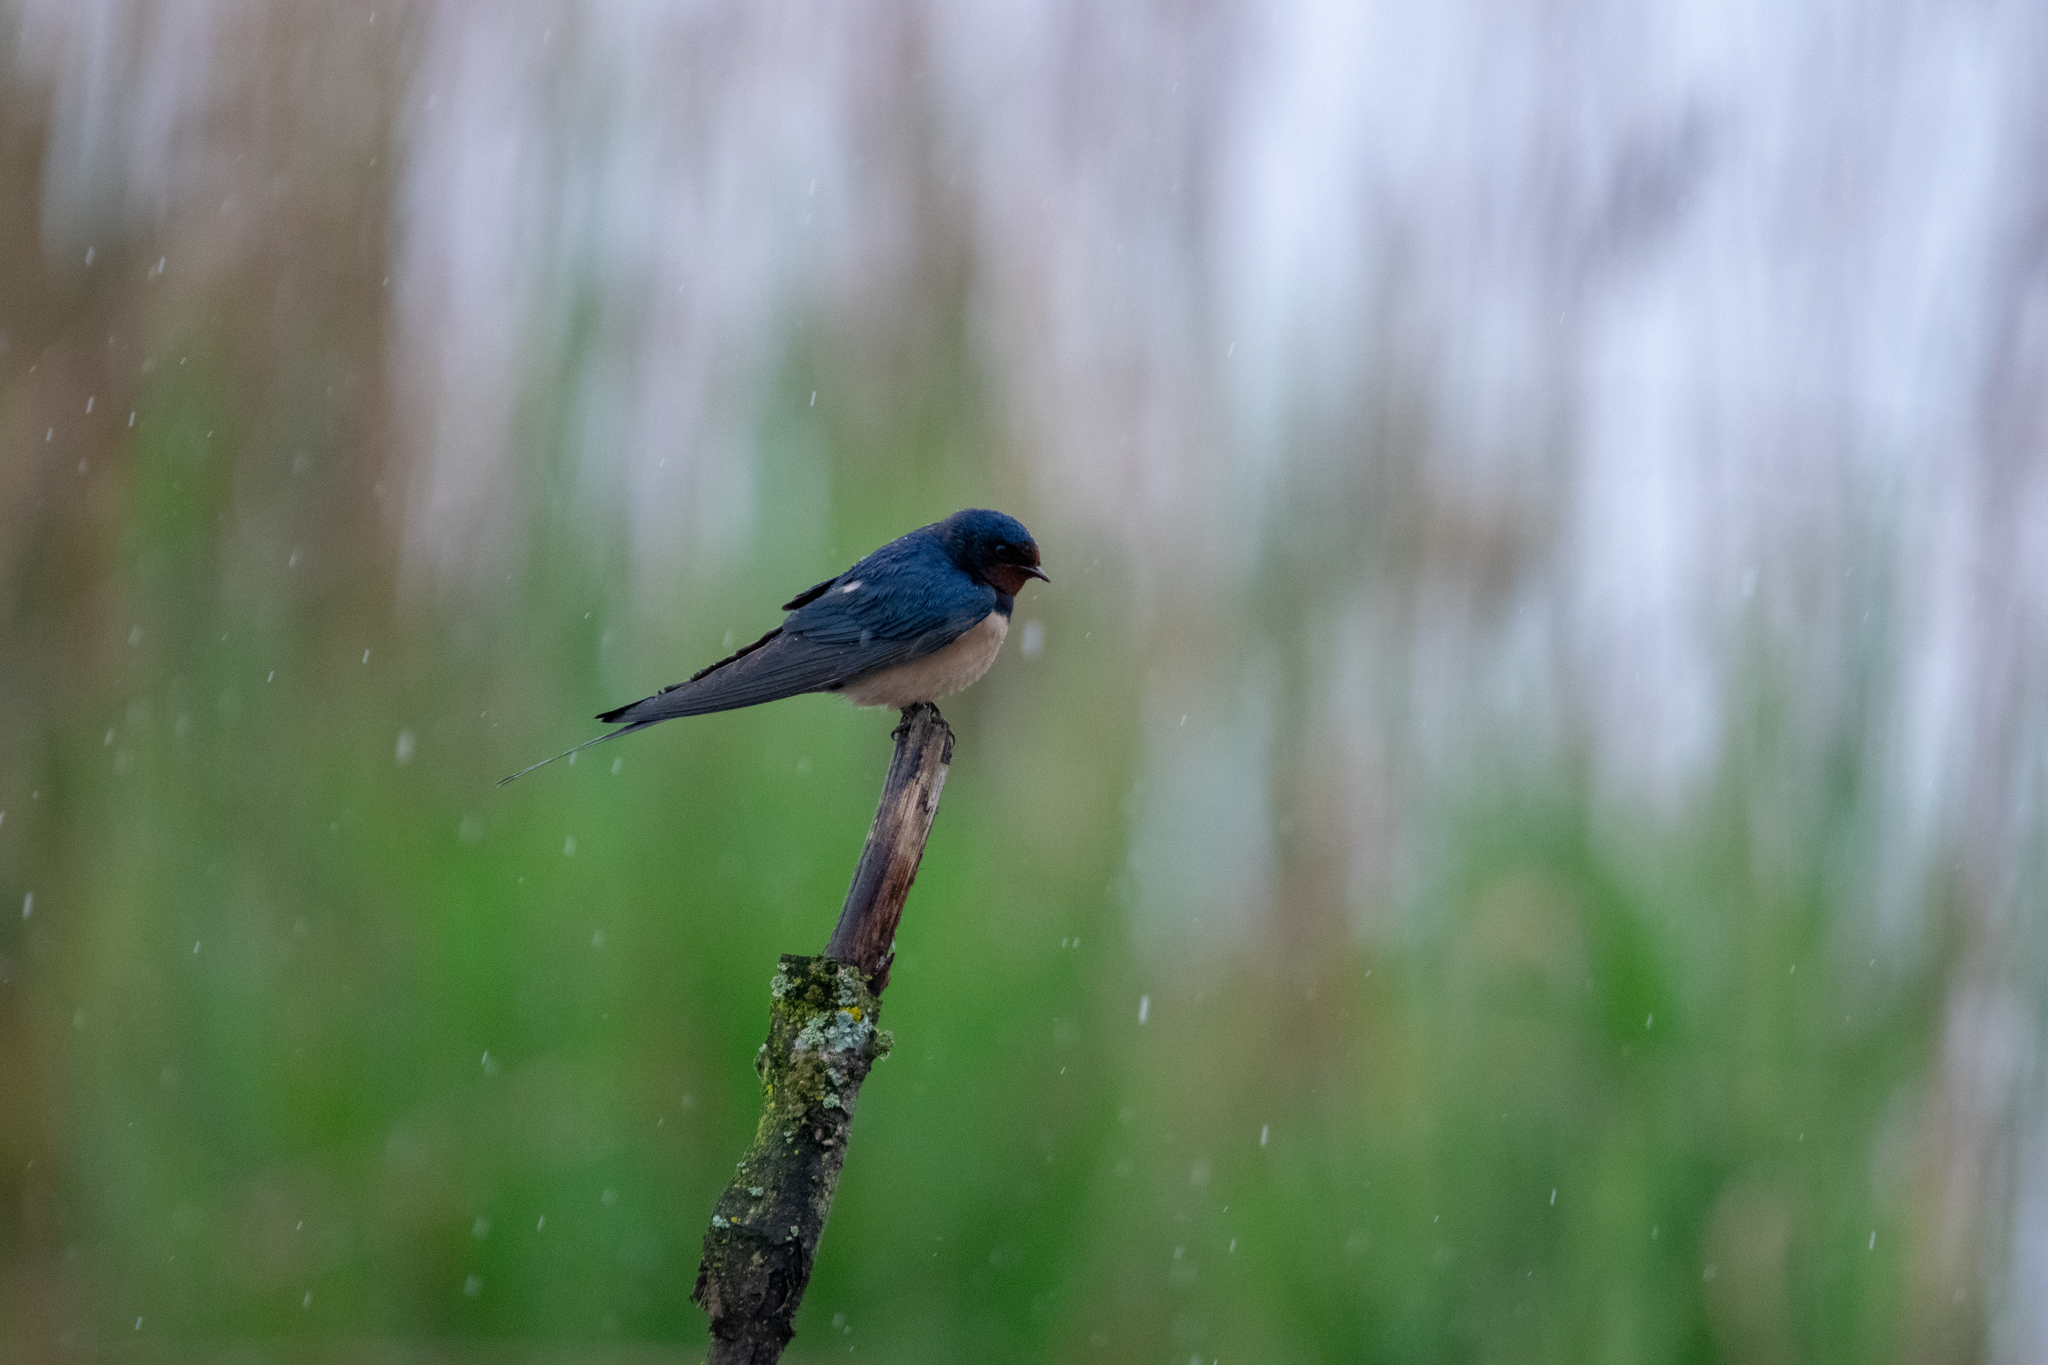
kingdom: Animalia
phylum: Chordata
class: Aves
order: Passeriformes
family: Hirundinidae
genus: Hirundo
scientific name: Hirundo rustica
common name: Barn swallow
